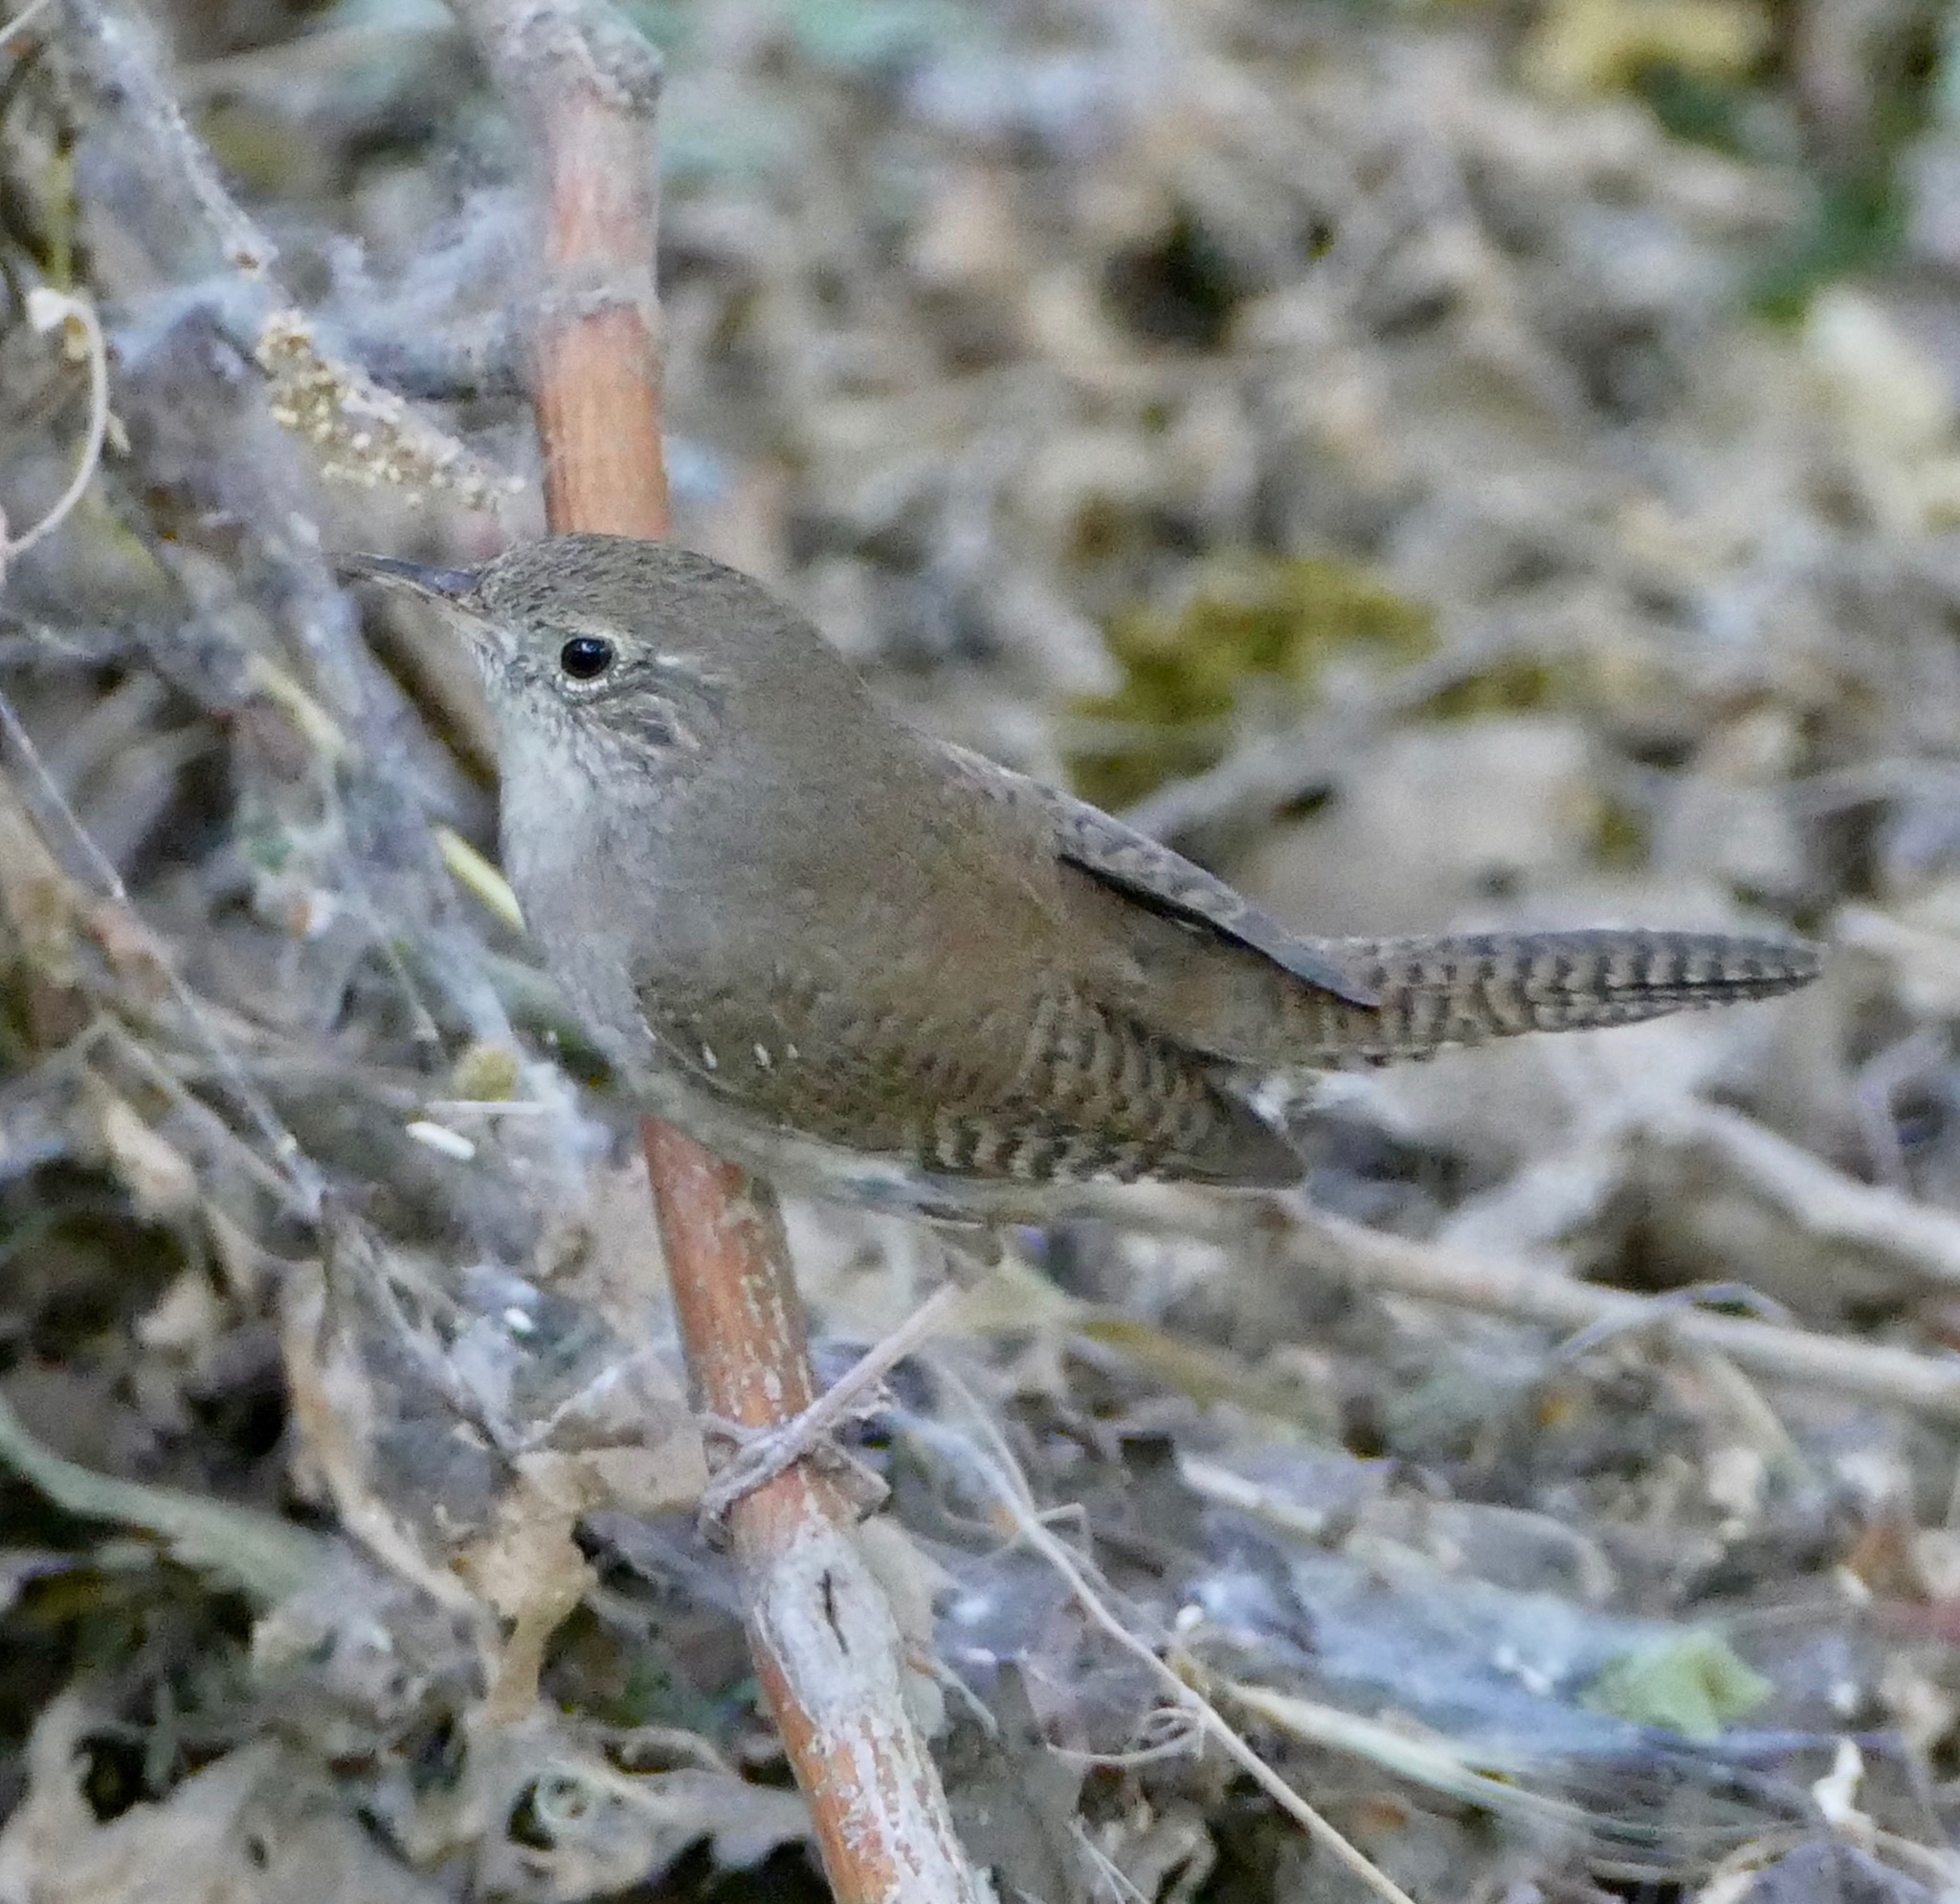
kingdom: Animalia
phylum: Chordata
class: Aves
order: Passeriformes
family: Troglodytidae
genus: Troglodytes
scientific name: Troglodytes aedon
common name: House wren
